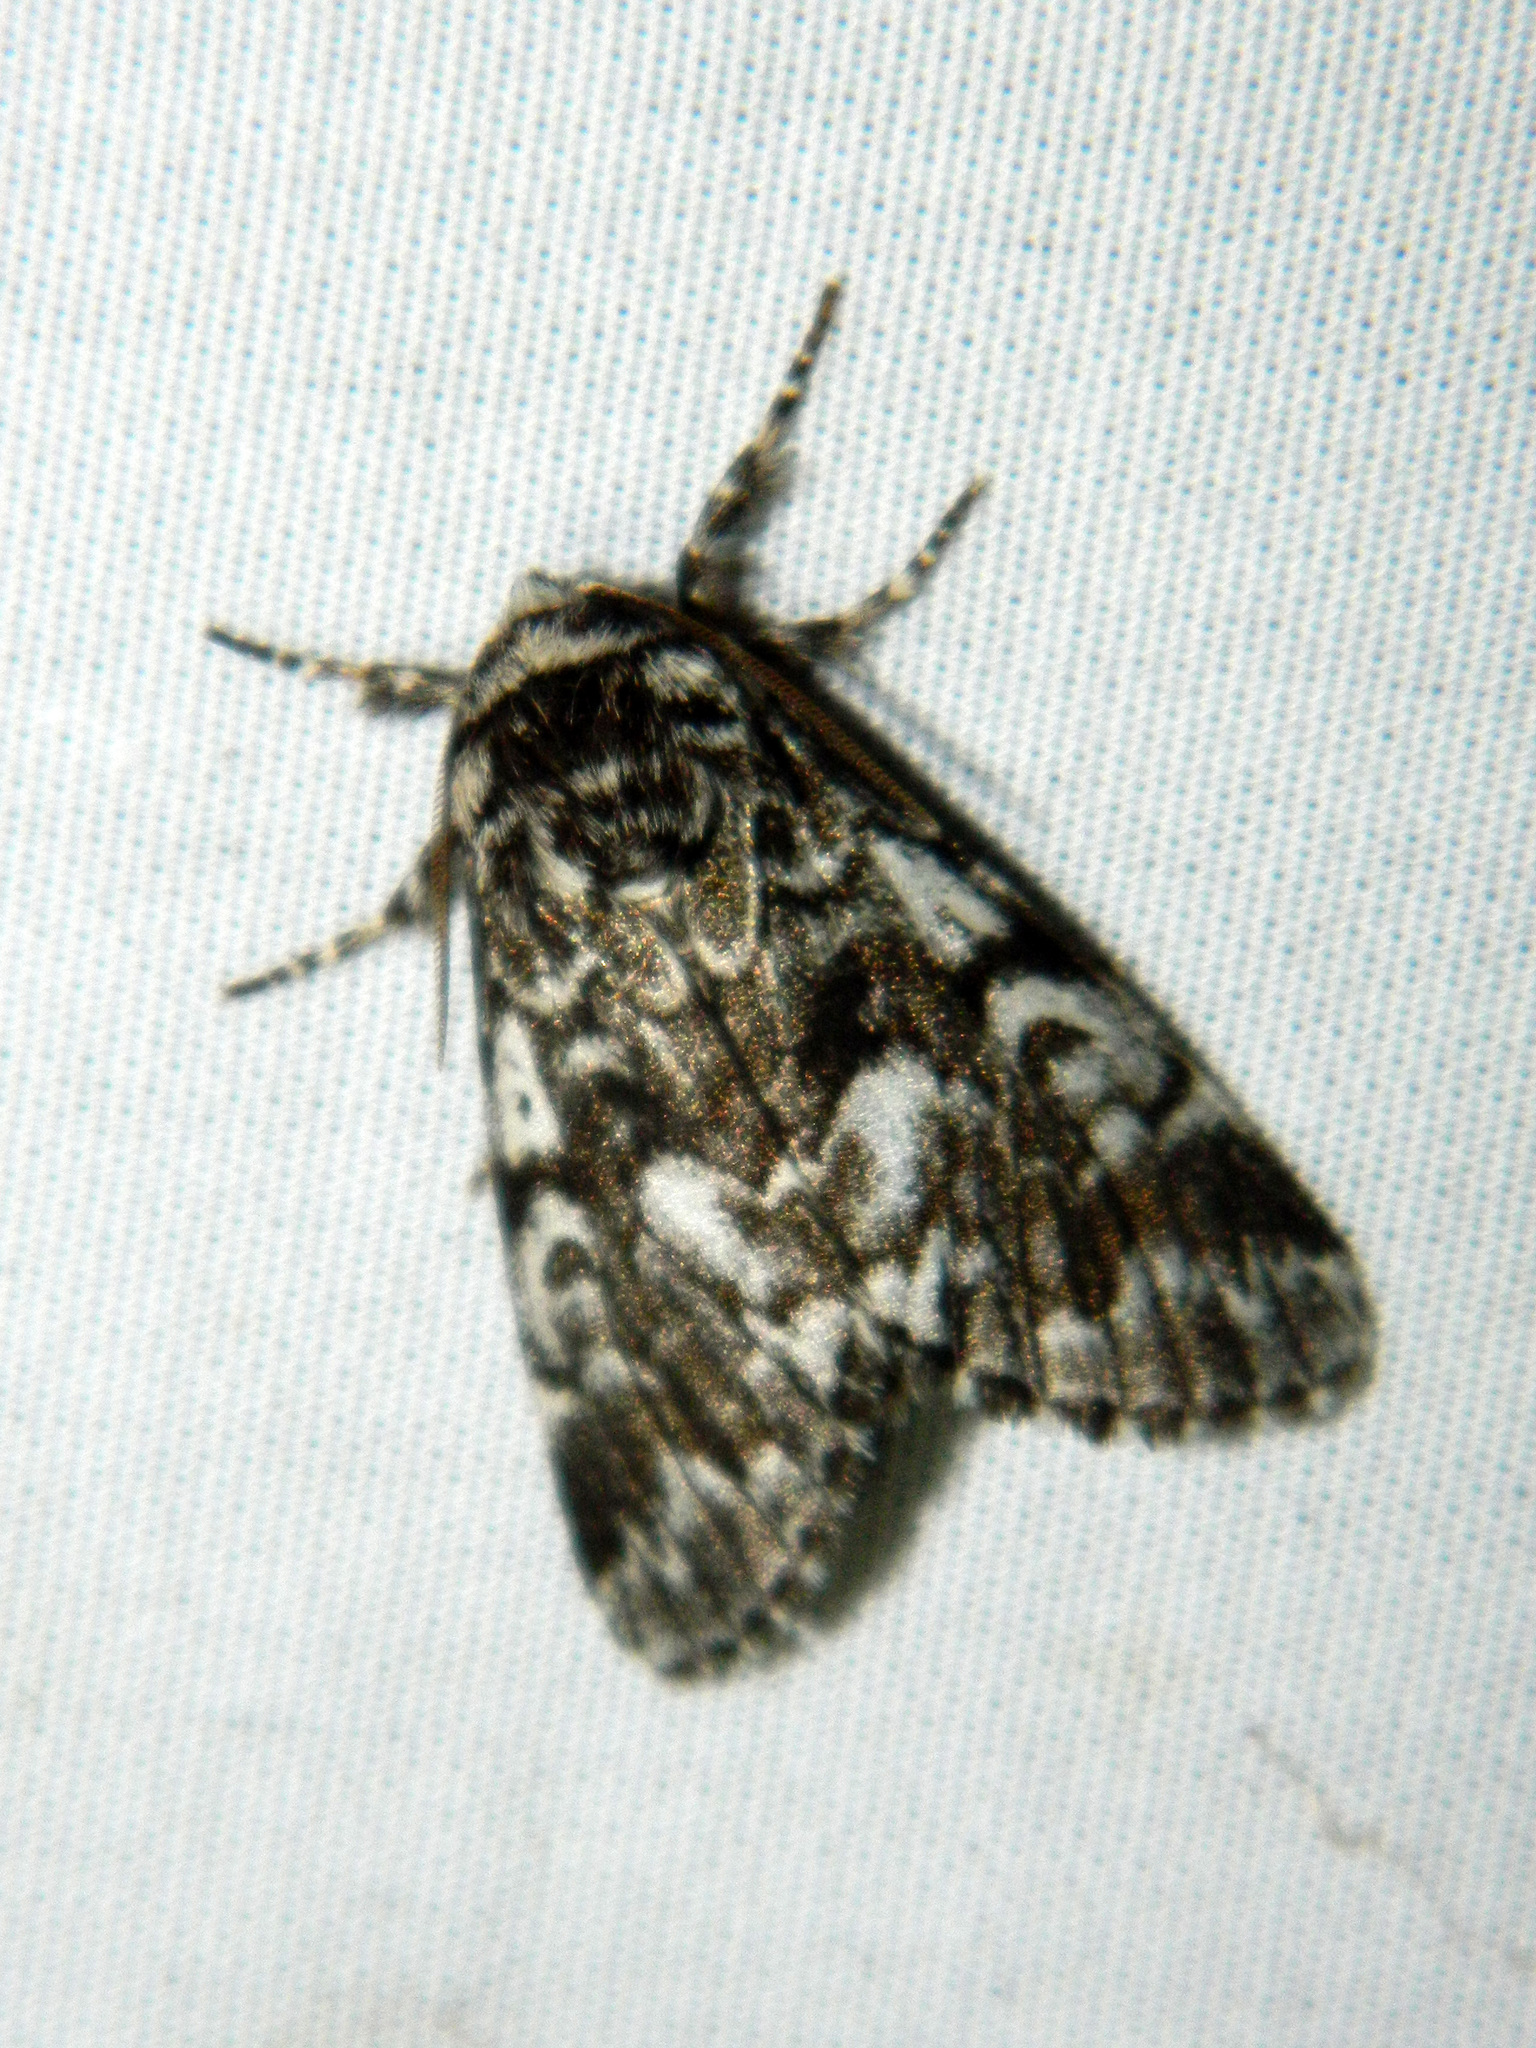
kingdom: Animalia
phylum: Arthropoda
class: Insecta
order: Lepidoptera
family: Noctuidae
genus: Panthea
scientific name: Panthea acronyctoides
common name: Black zigzag moth
